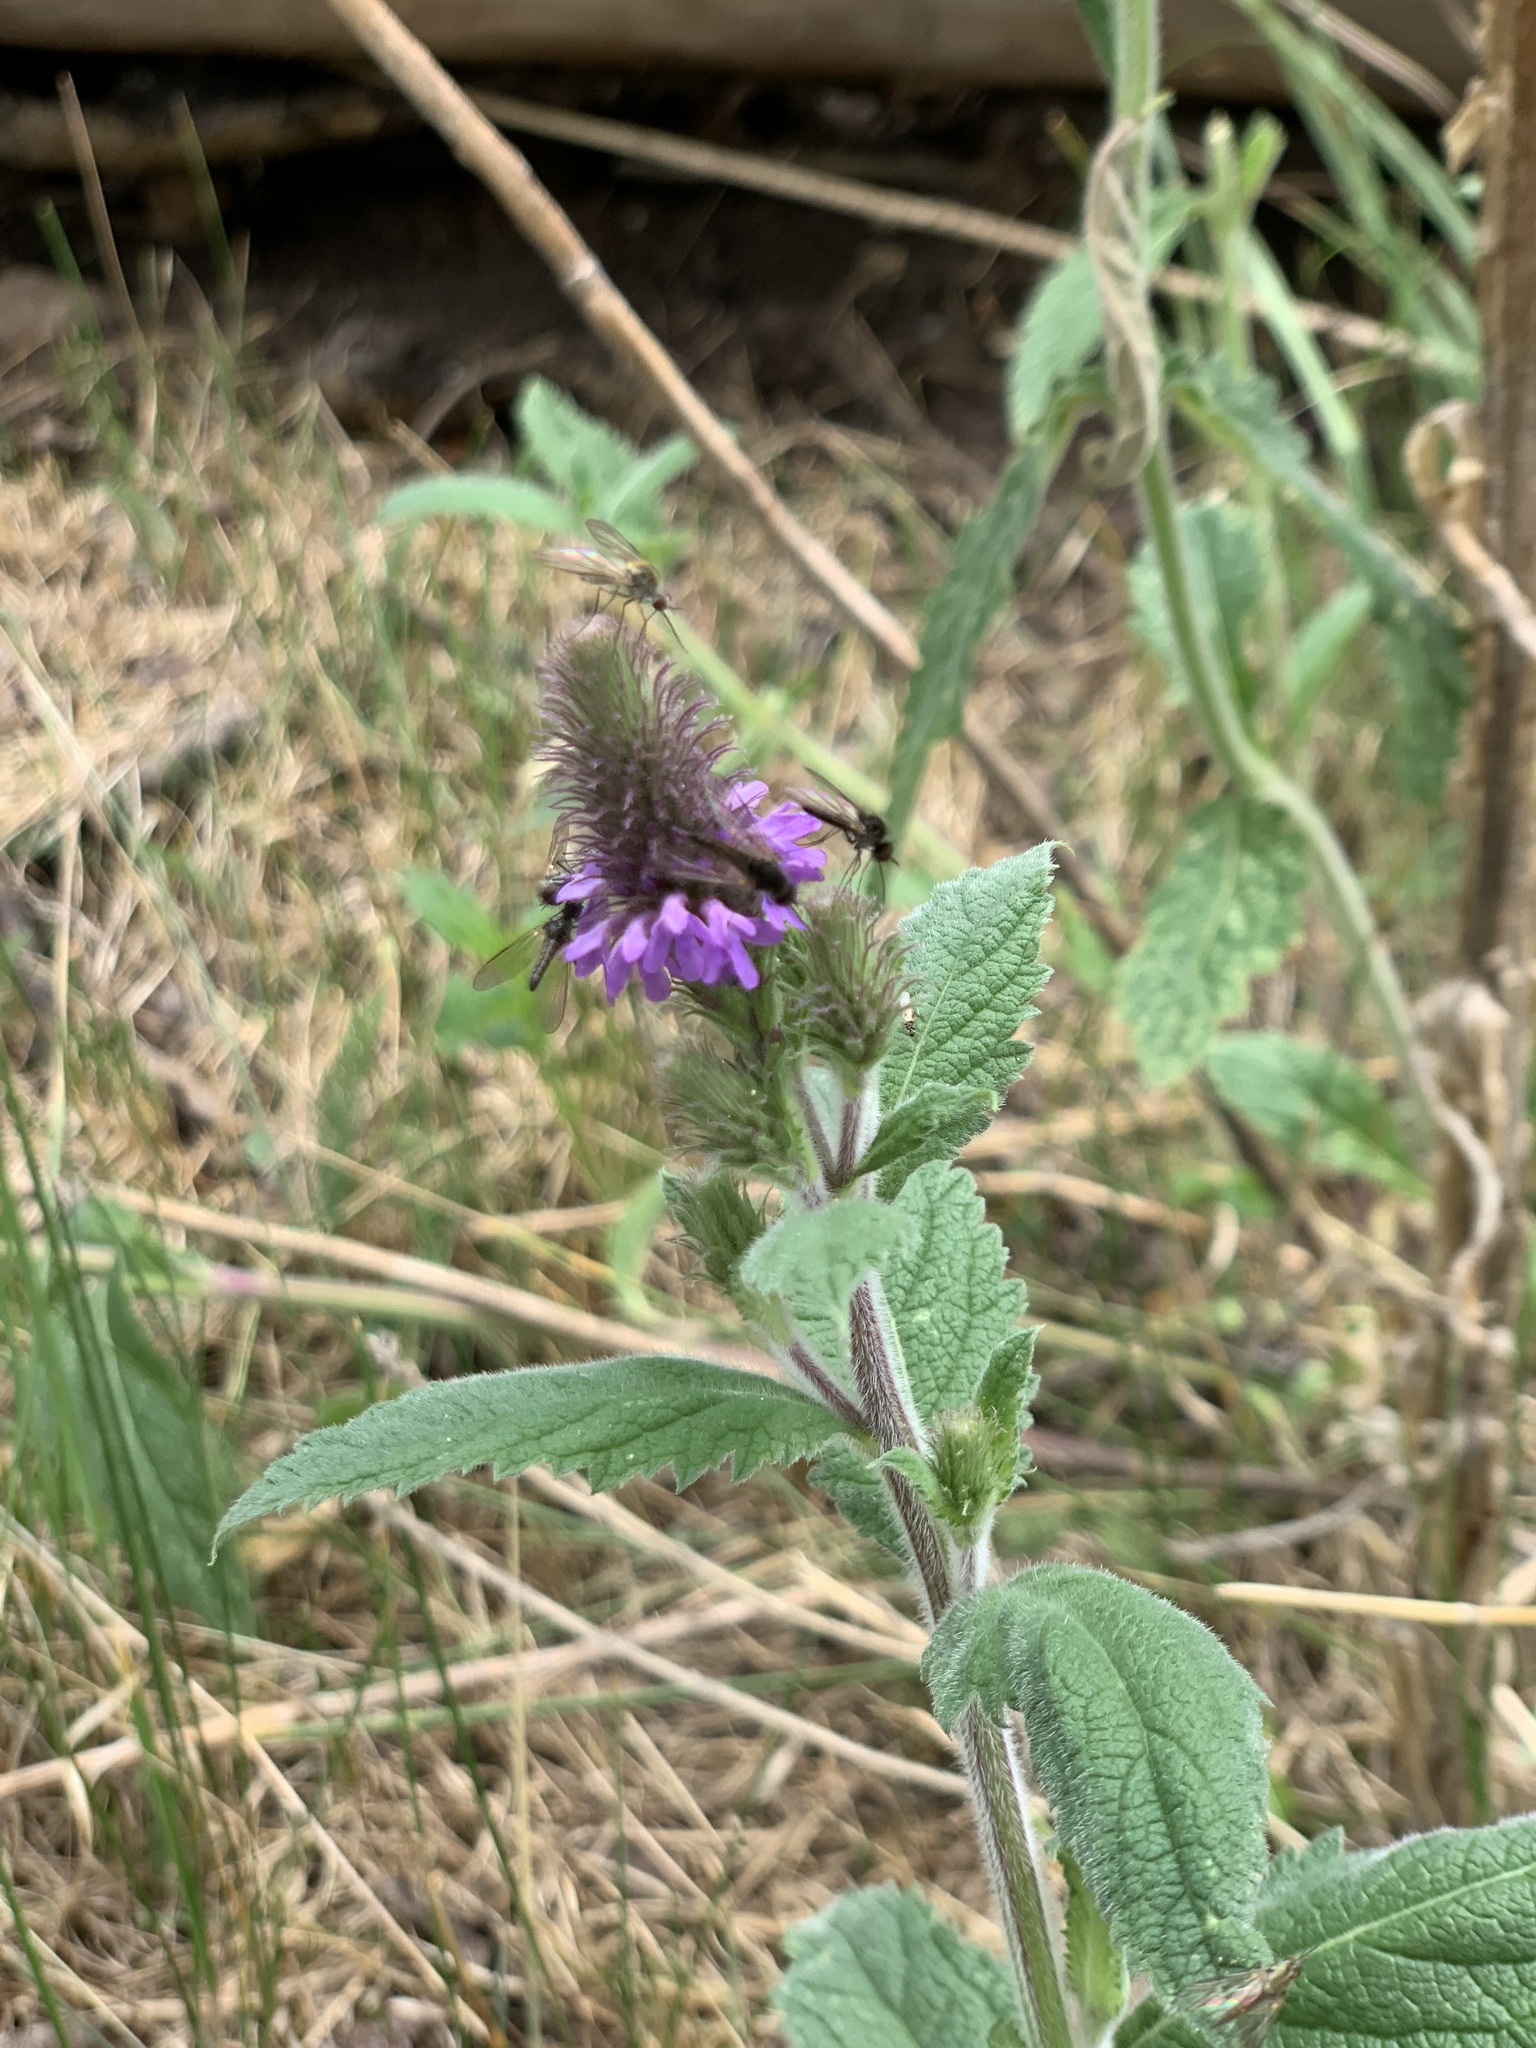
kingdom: Plantae
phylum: Tracheophyta
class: Magnoliopsida
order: Lamiales
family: Verbenaceae
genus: Verbena
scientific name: Verbena macdougalii
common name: New mexico vervain
